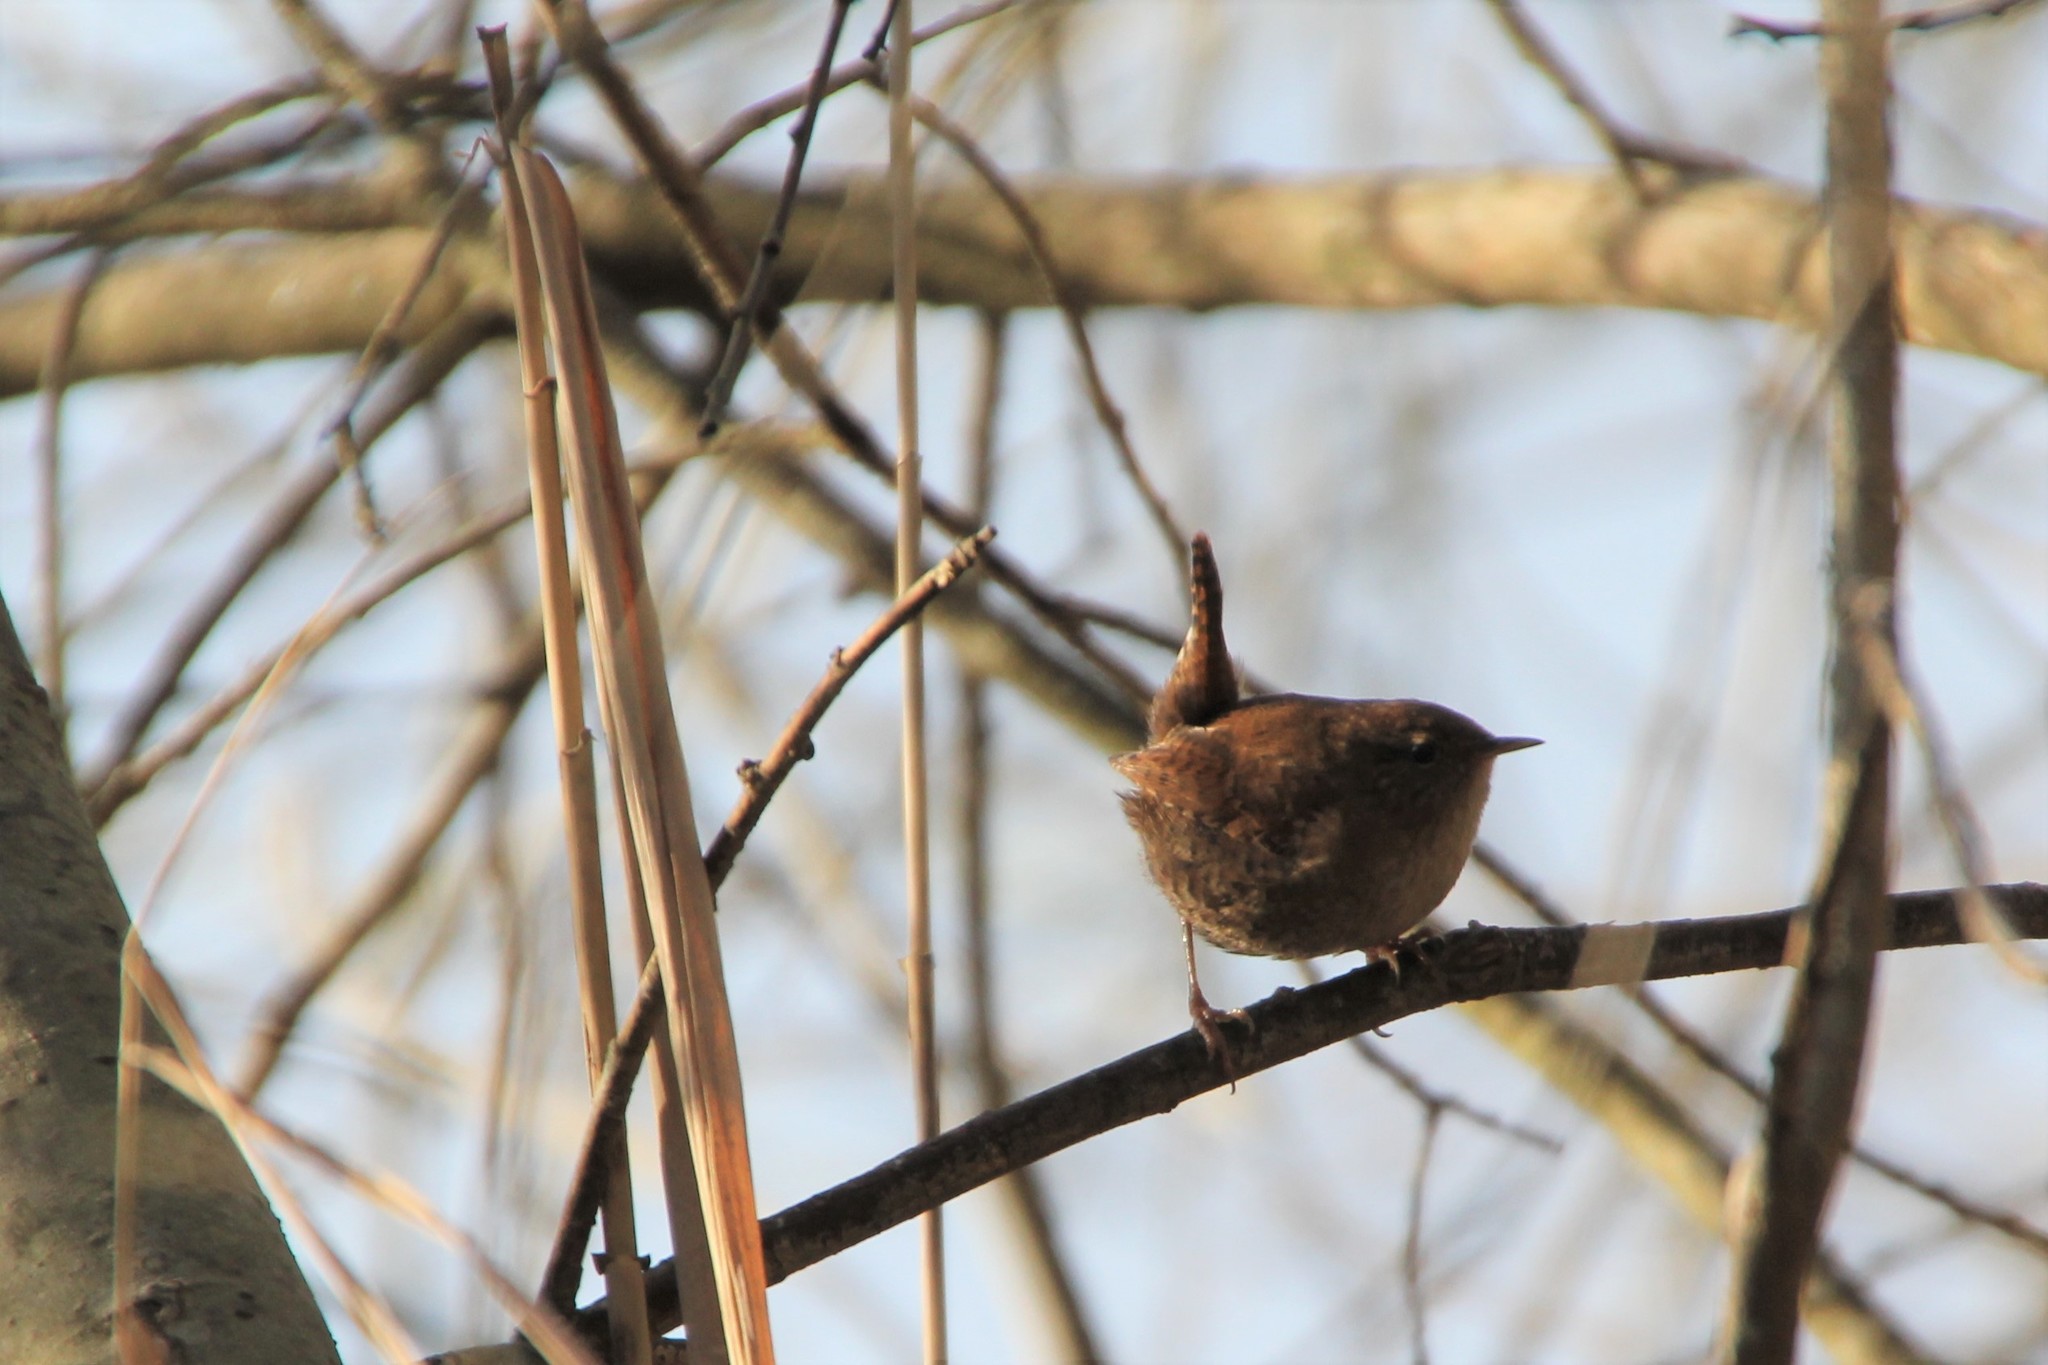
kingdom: Animalia
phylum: Chordata
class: Aves
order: Passeriformes
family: Troglodytidae
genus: Troglodytes
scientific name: Troglodytes troglodytes
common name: Eurasian wren
